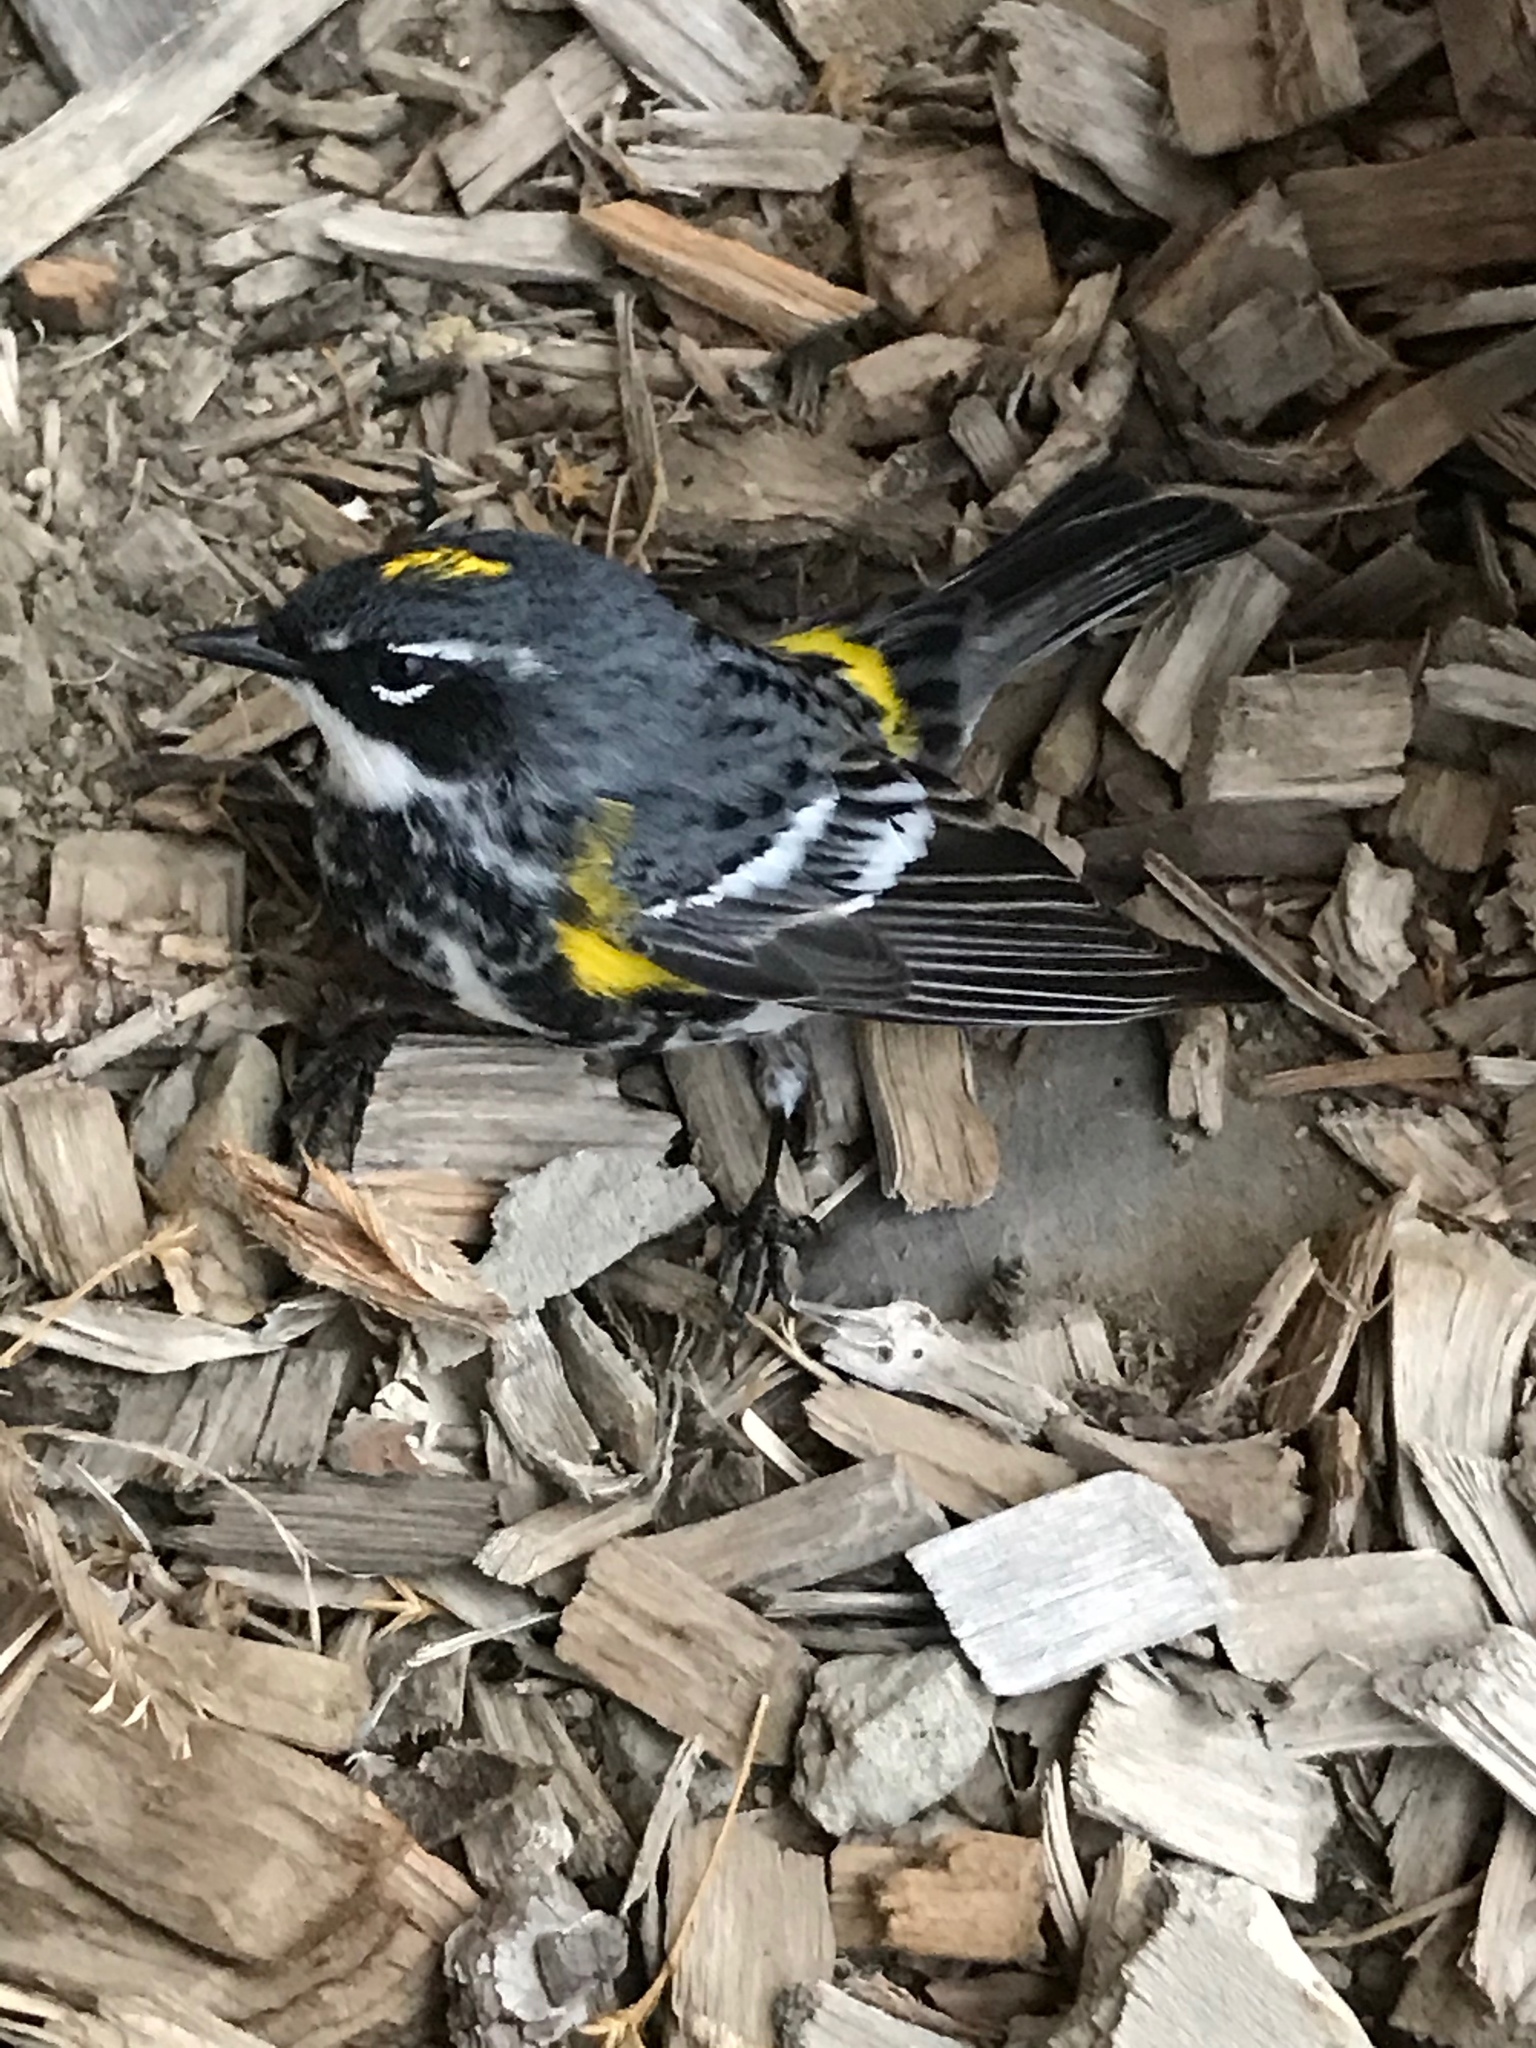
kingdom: Animalia
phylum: Chordata
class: Aves
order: Passeriformes
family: Parulidae
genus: Setophaga
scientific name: Setophaga coronata
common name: Myrtle warbler
